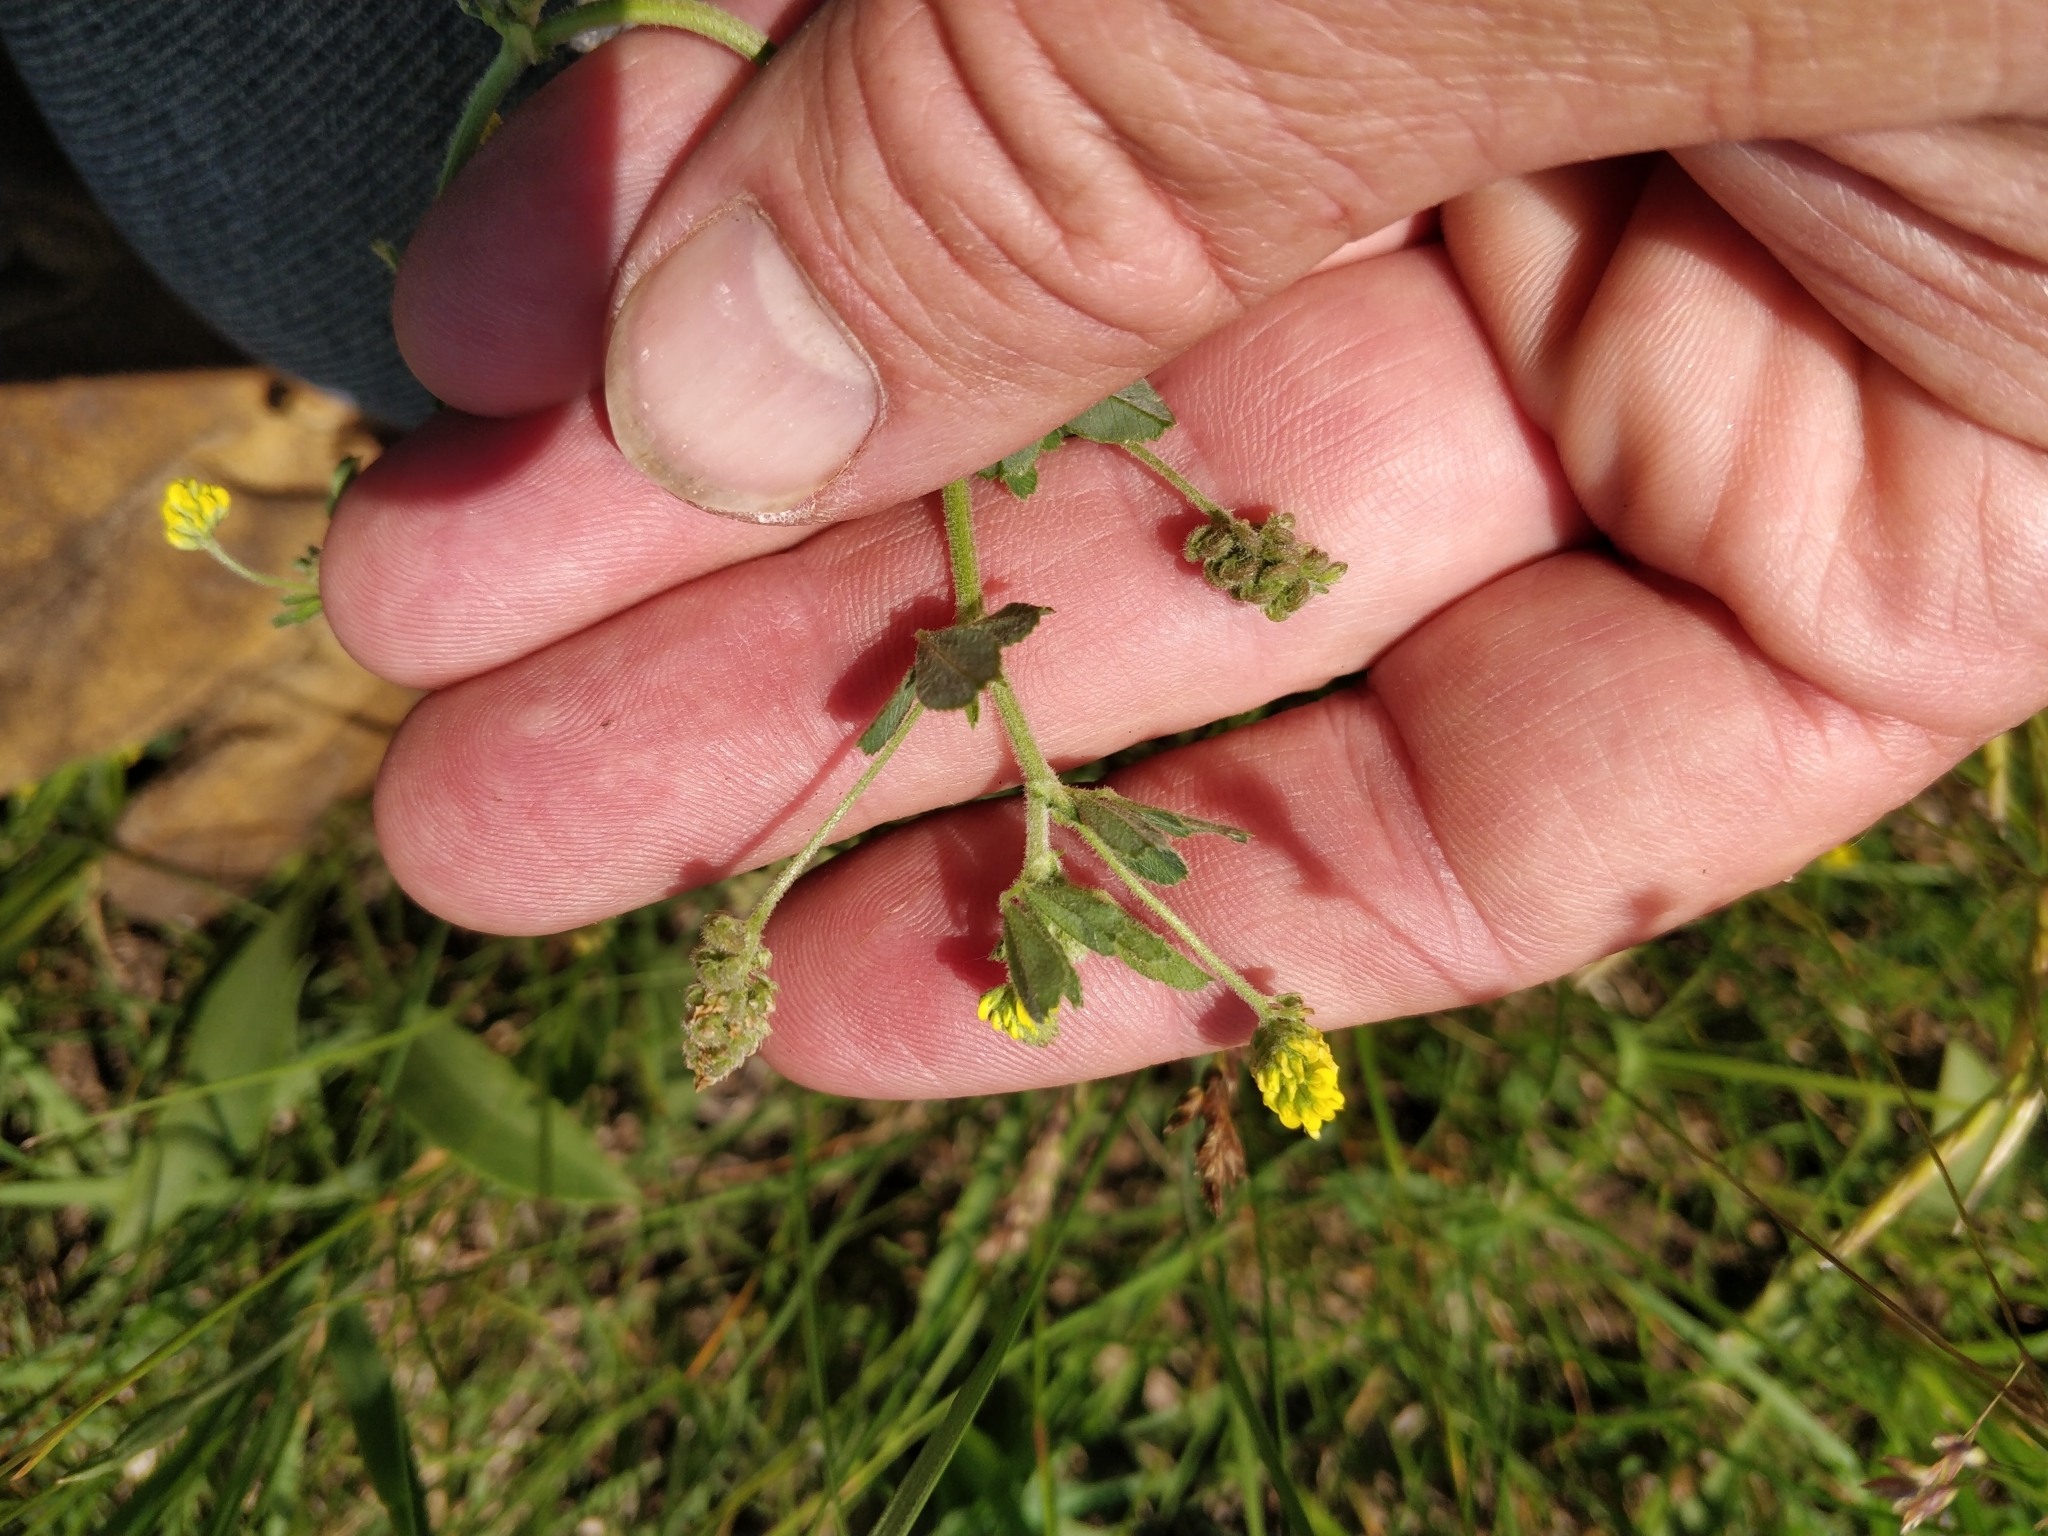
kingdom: Plantae
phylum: Tracheophyta
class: Magnoliopsida
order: Fabales
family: Fabaceae
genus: Medicago
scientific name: Medicago lupulina
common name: Black medick
